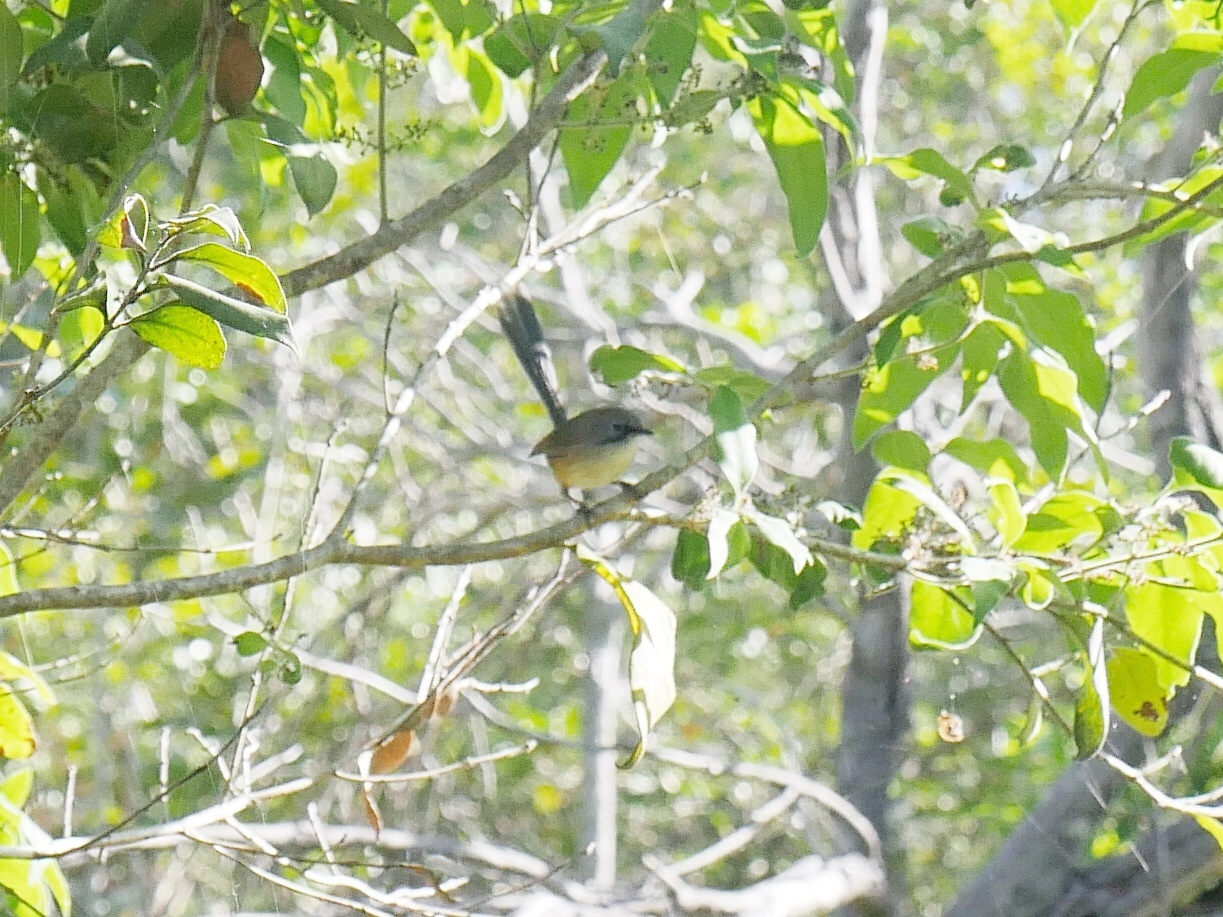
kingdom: Animalia
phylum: Chordata
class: Aves
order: Passeriformes
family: Maluridae
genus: Malurus
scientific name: Malurus lamberti
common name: Variegated fairywren
